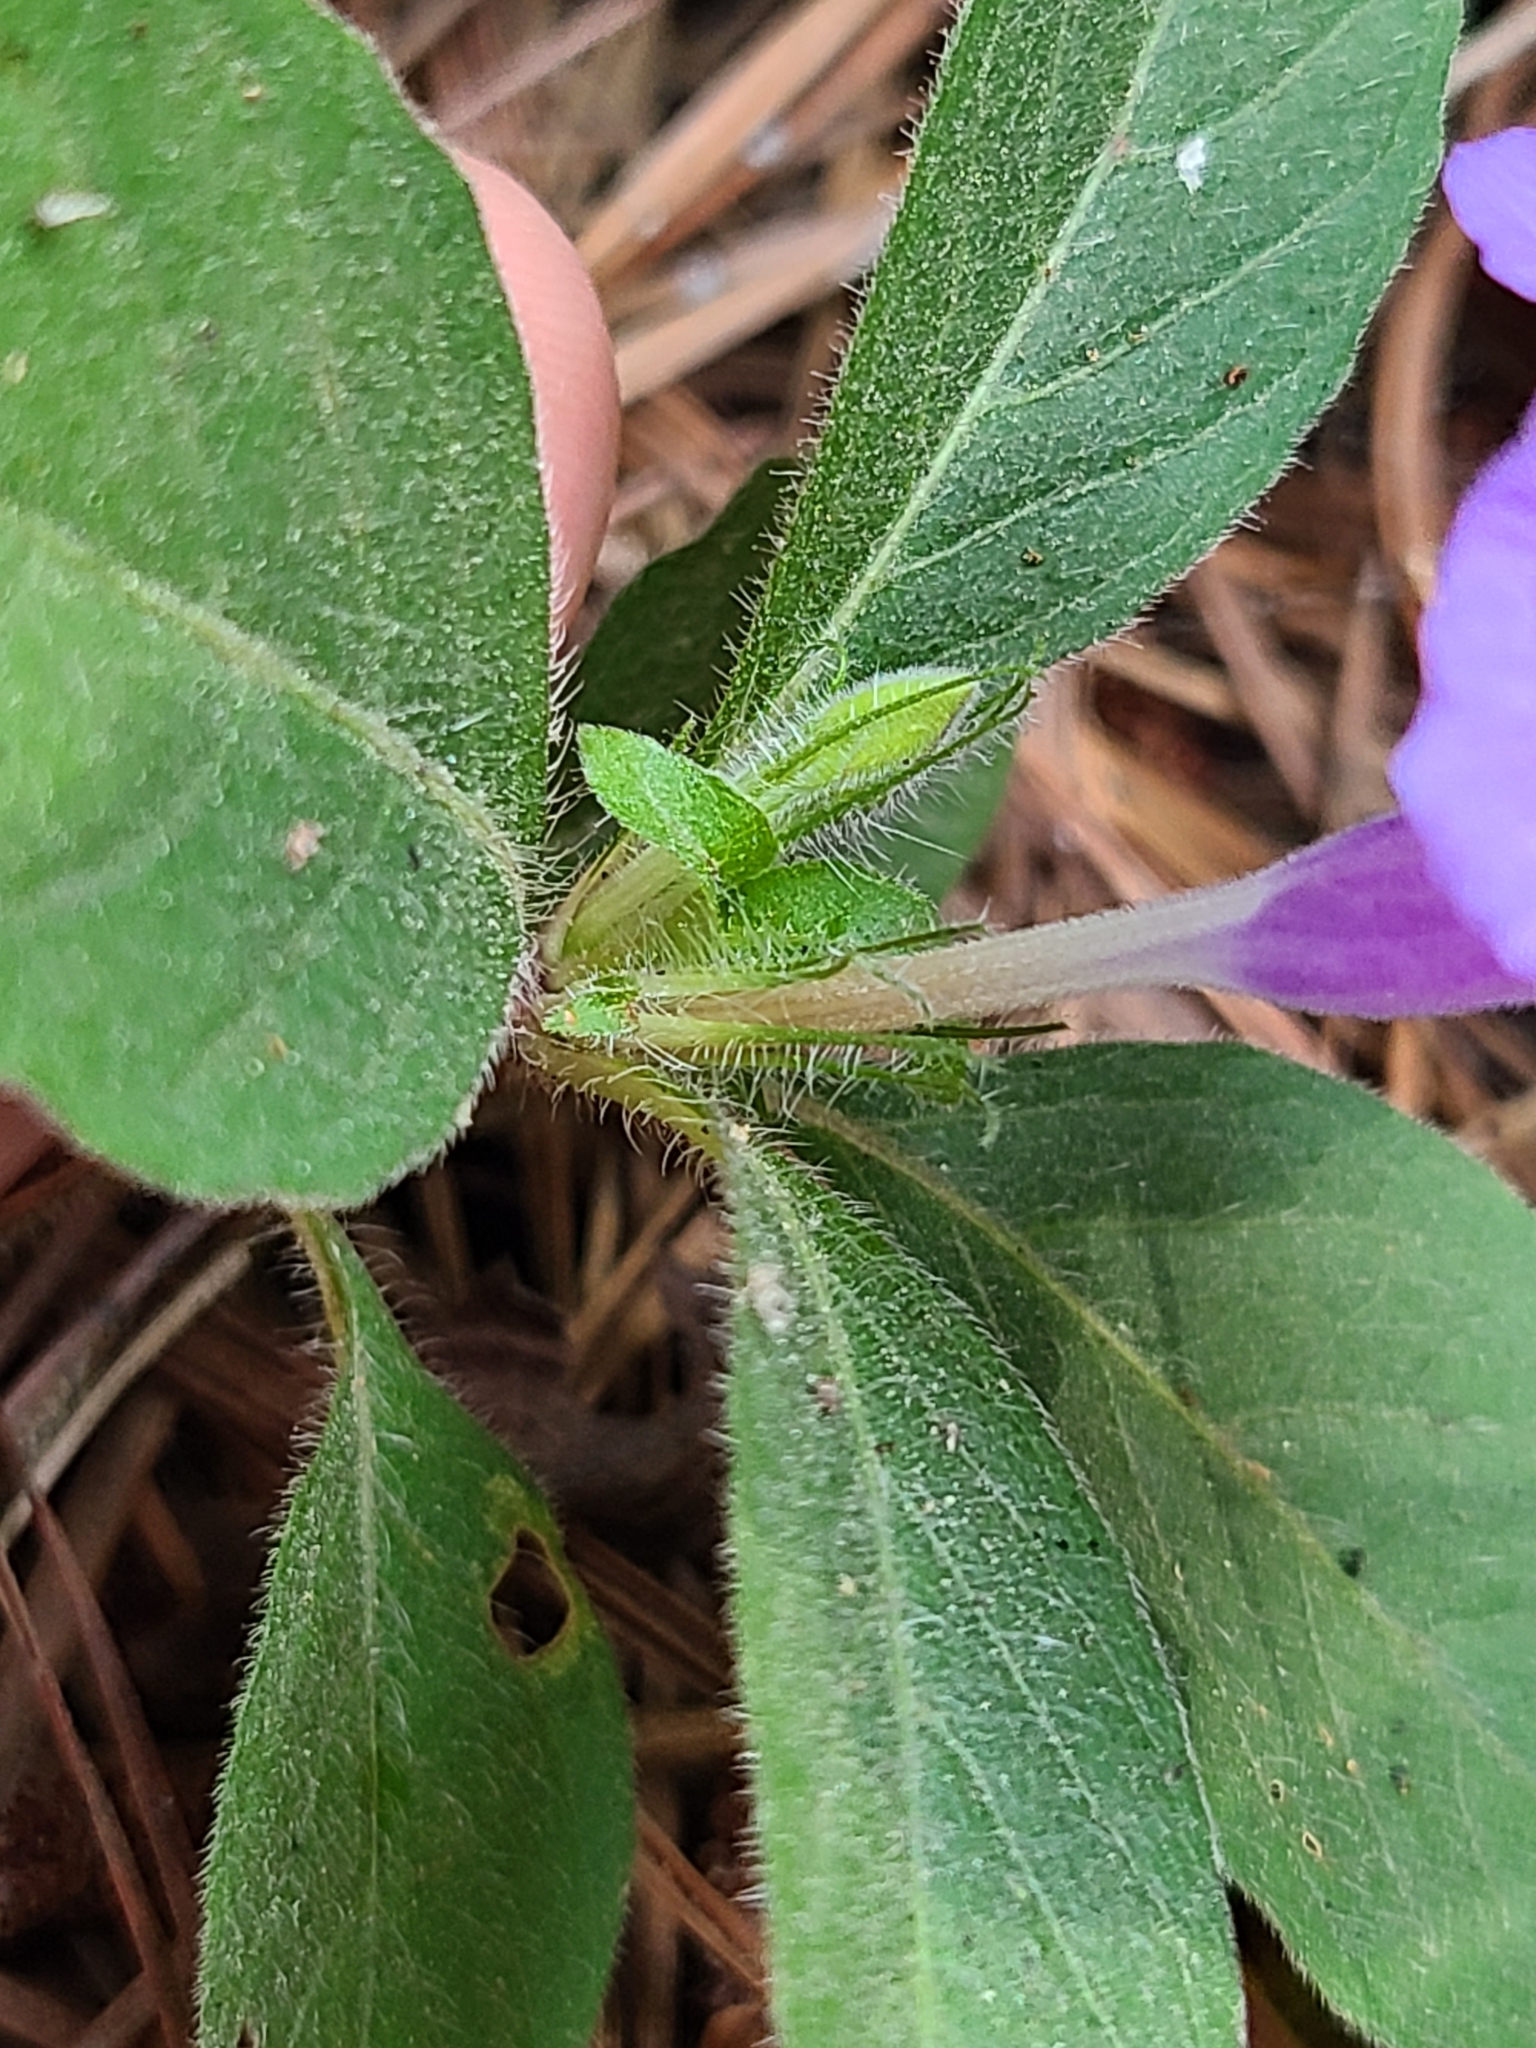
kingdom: Plantae
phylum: Tracheophyta
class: Magnoliopsida
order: Lamiales
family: Acanthaceae
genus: Ruellia
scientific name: Ruellia caroliniensis
